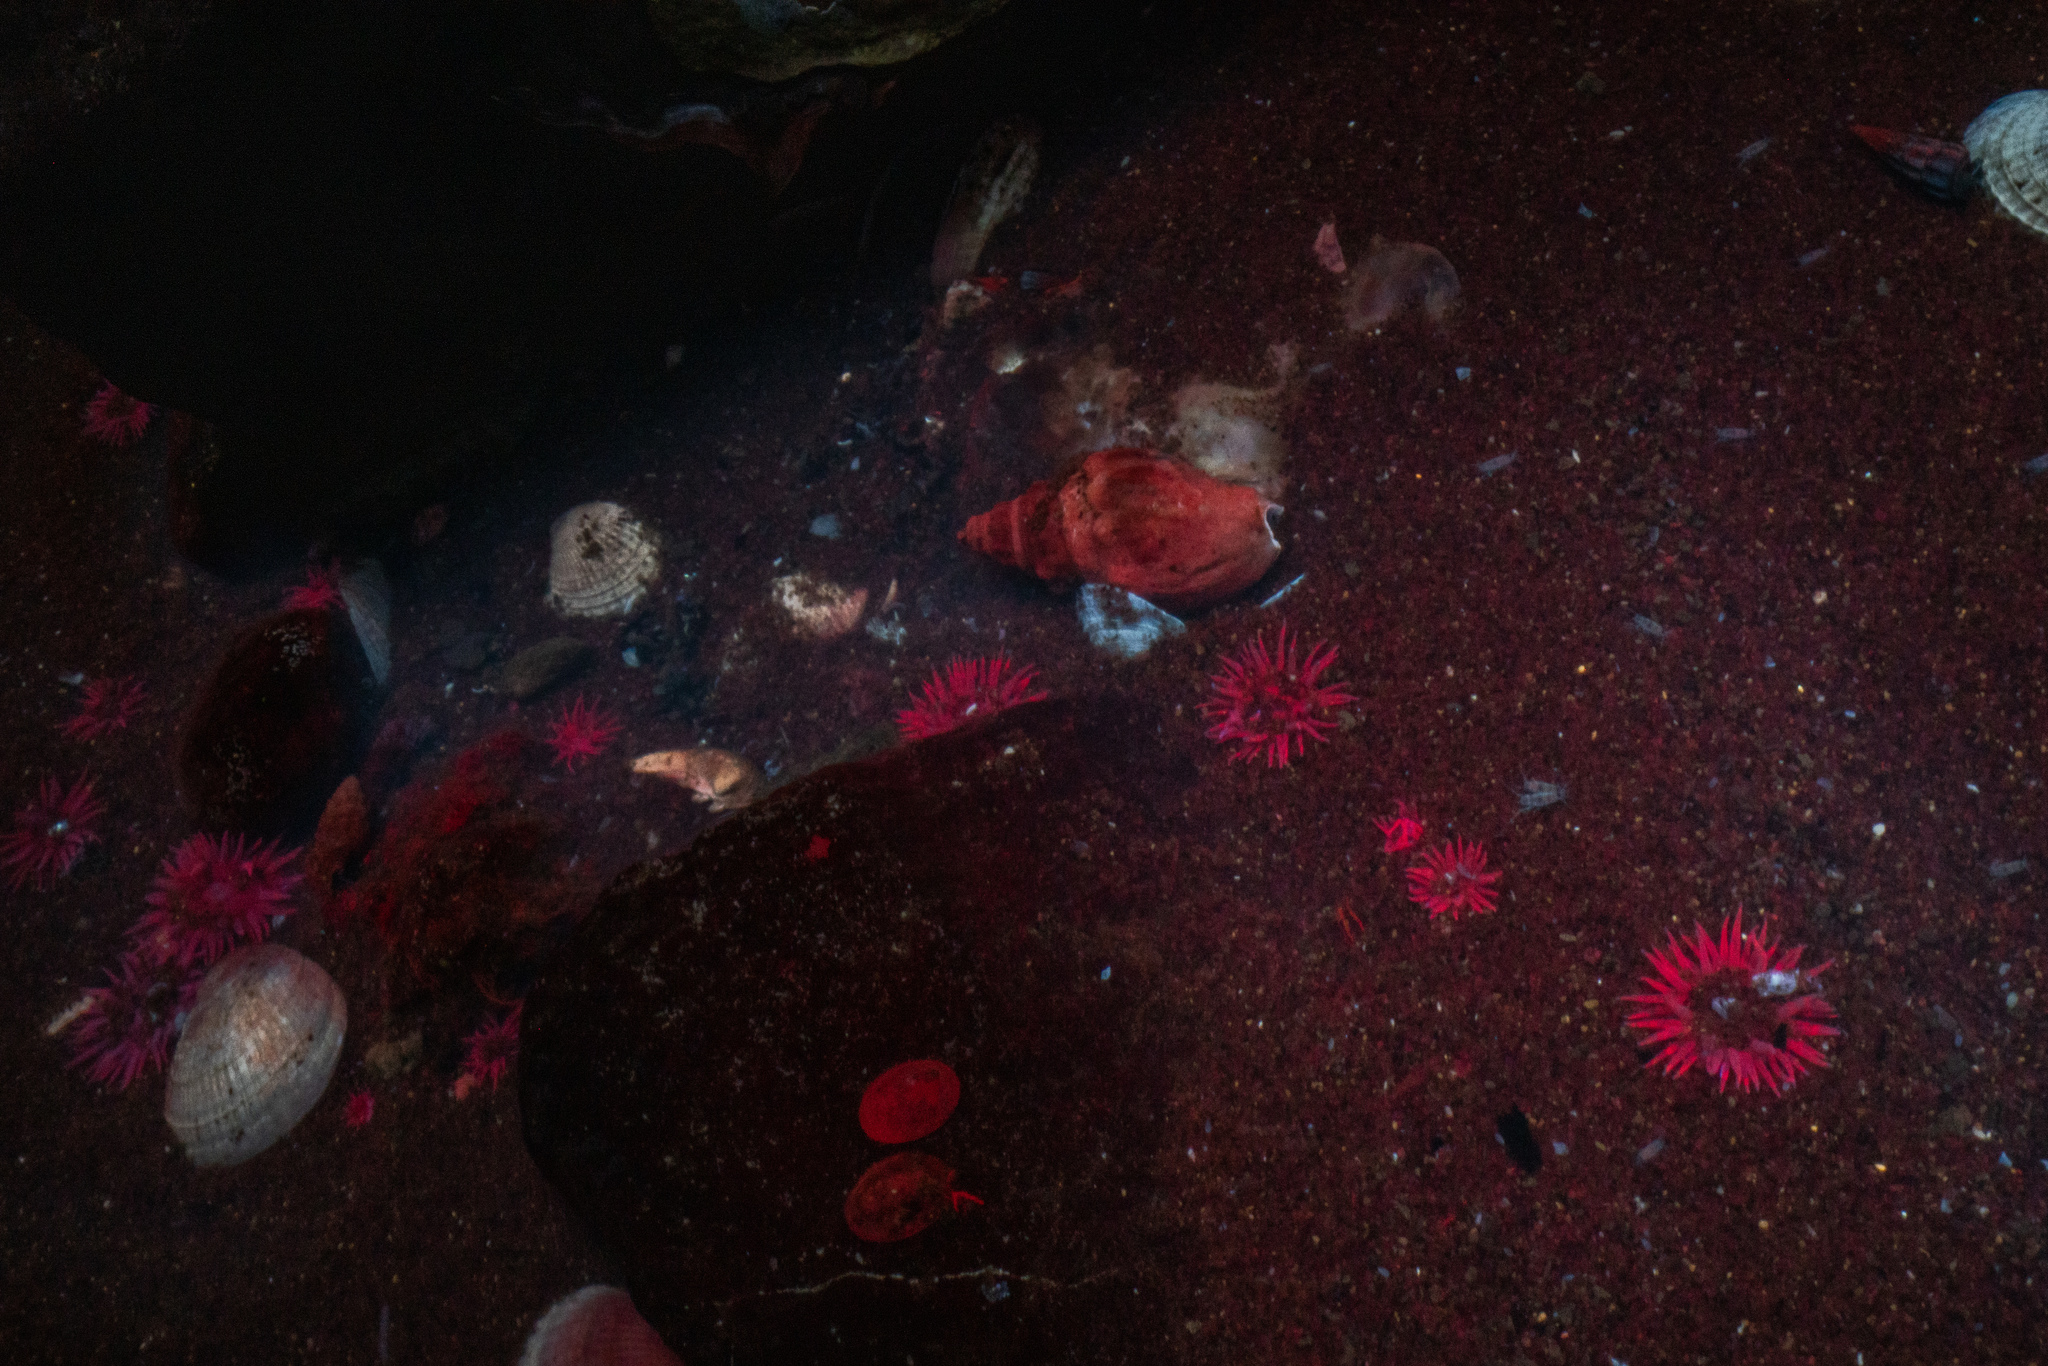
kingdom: Animalia
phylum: Cnidaria
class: Anthozoa
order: Actiniaria
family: Actiniidae
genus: Anthopleura
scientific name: Anthopleura hermaphroditica
